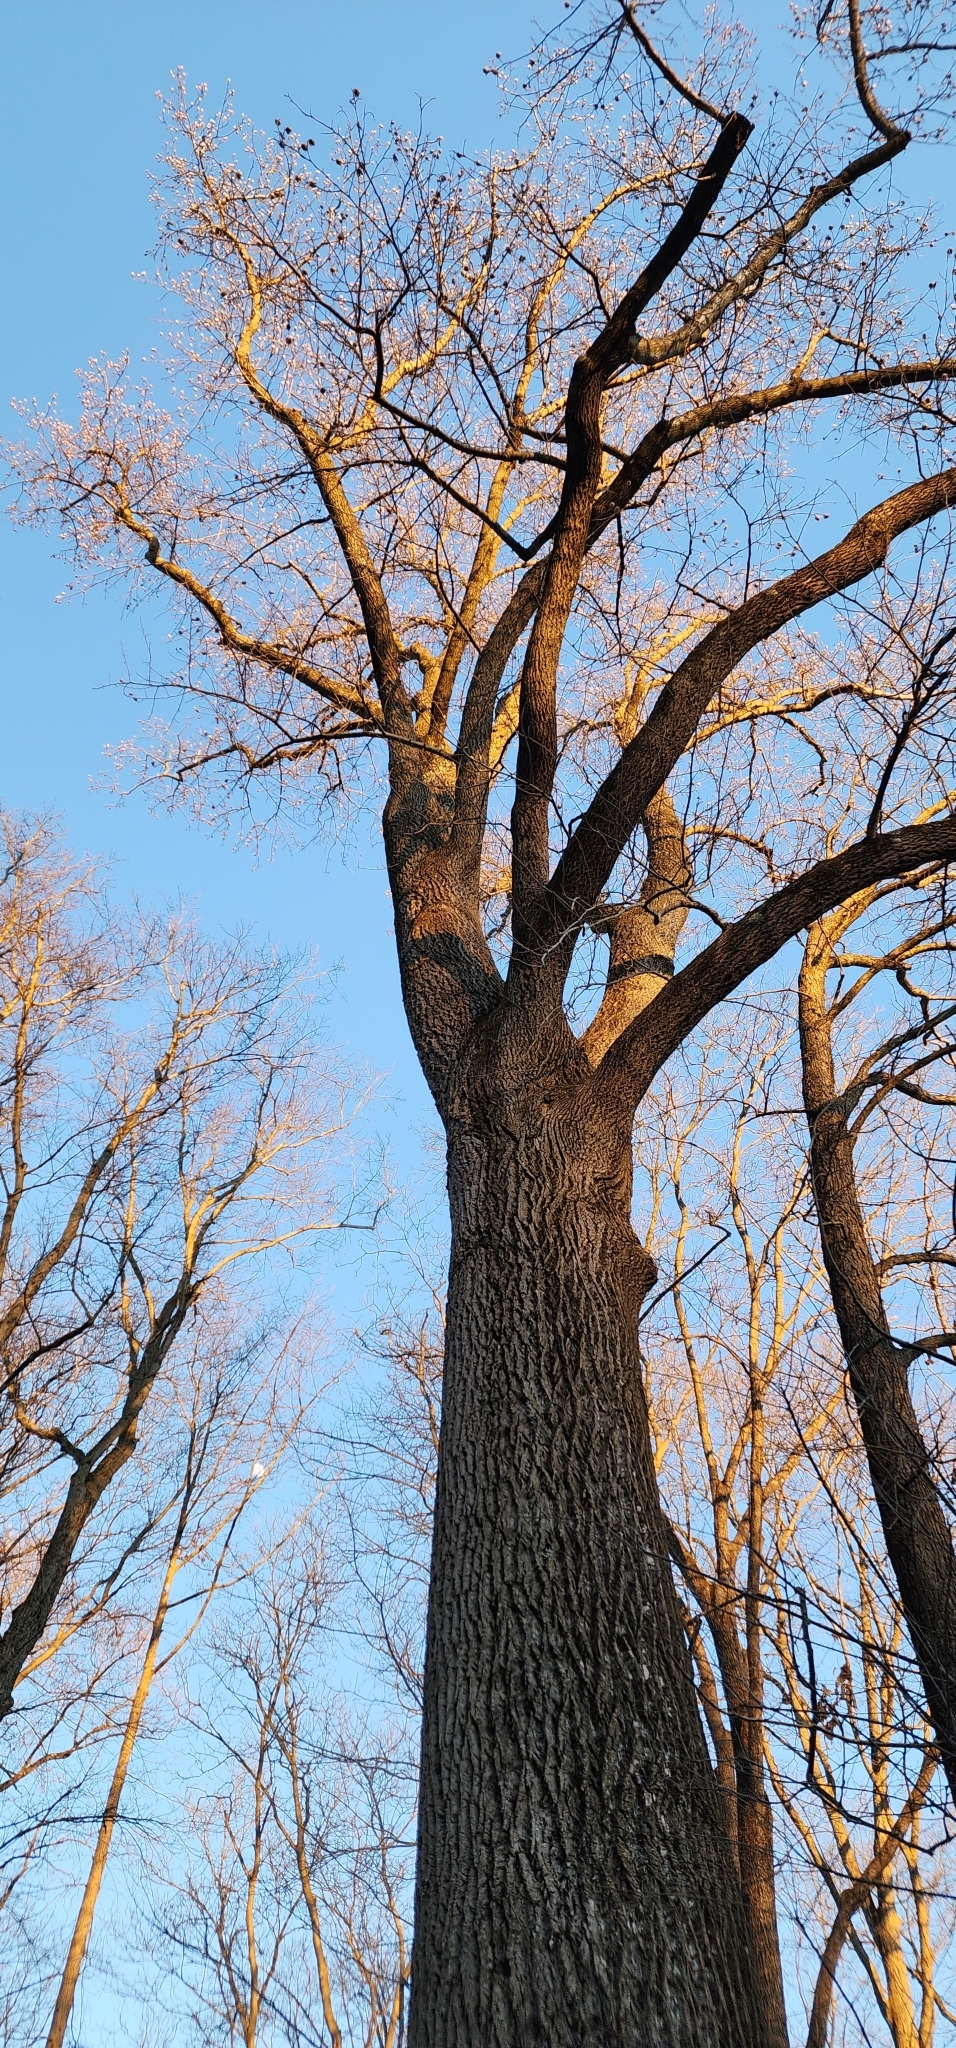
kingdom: Plantae
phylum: Tracheophyta
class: Magnoliopsida
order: Magnoliales
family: Magnoliaceae
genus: Liriodendron
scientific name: Liriodendron tulipifera
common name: Tulip tree
